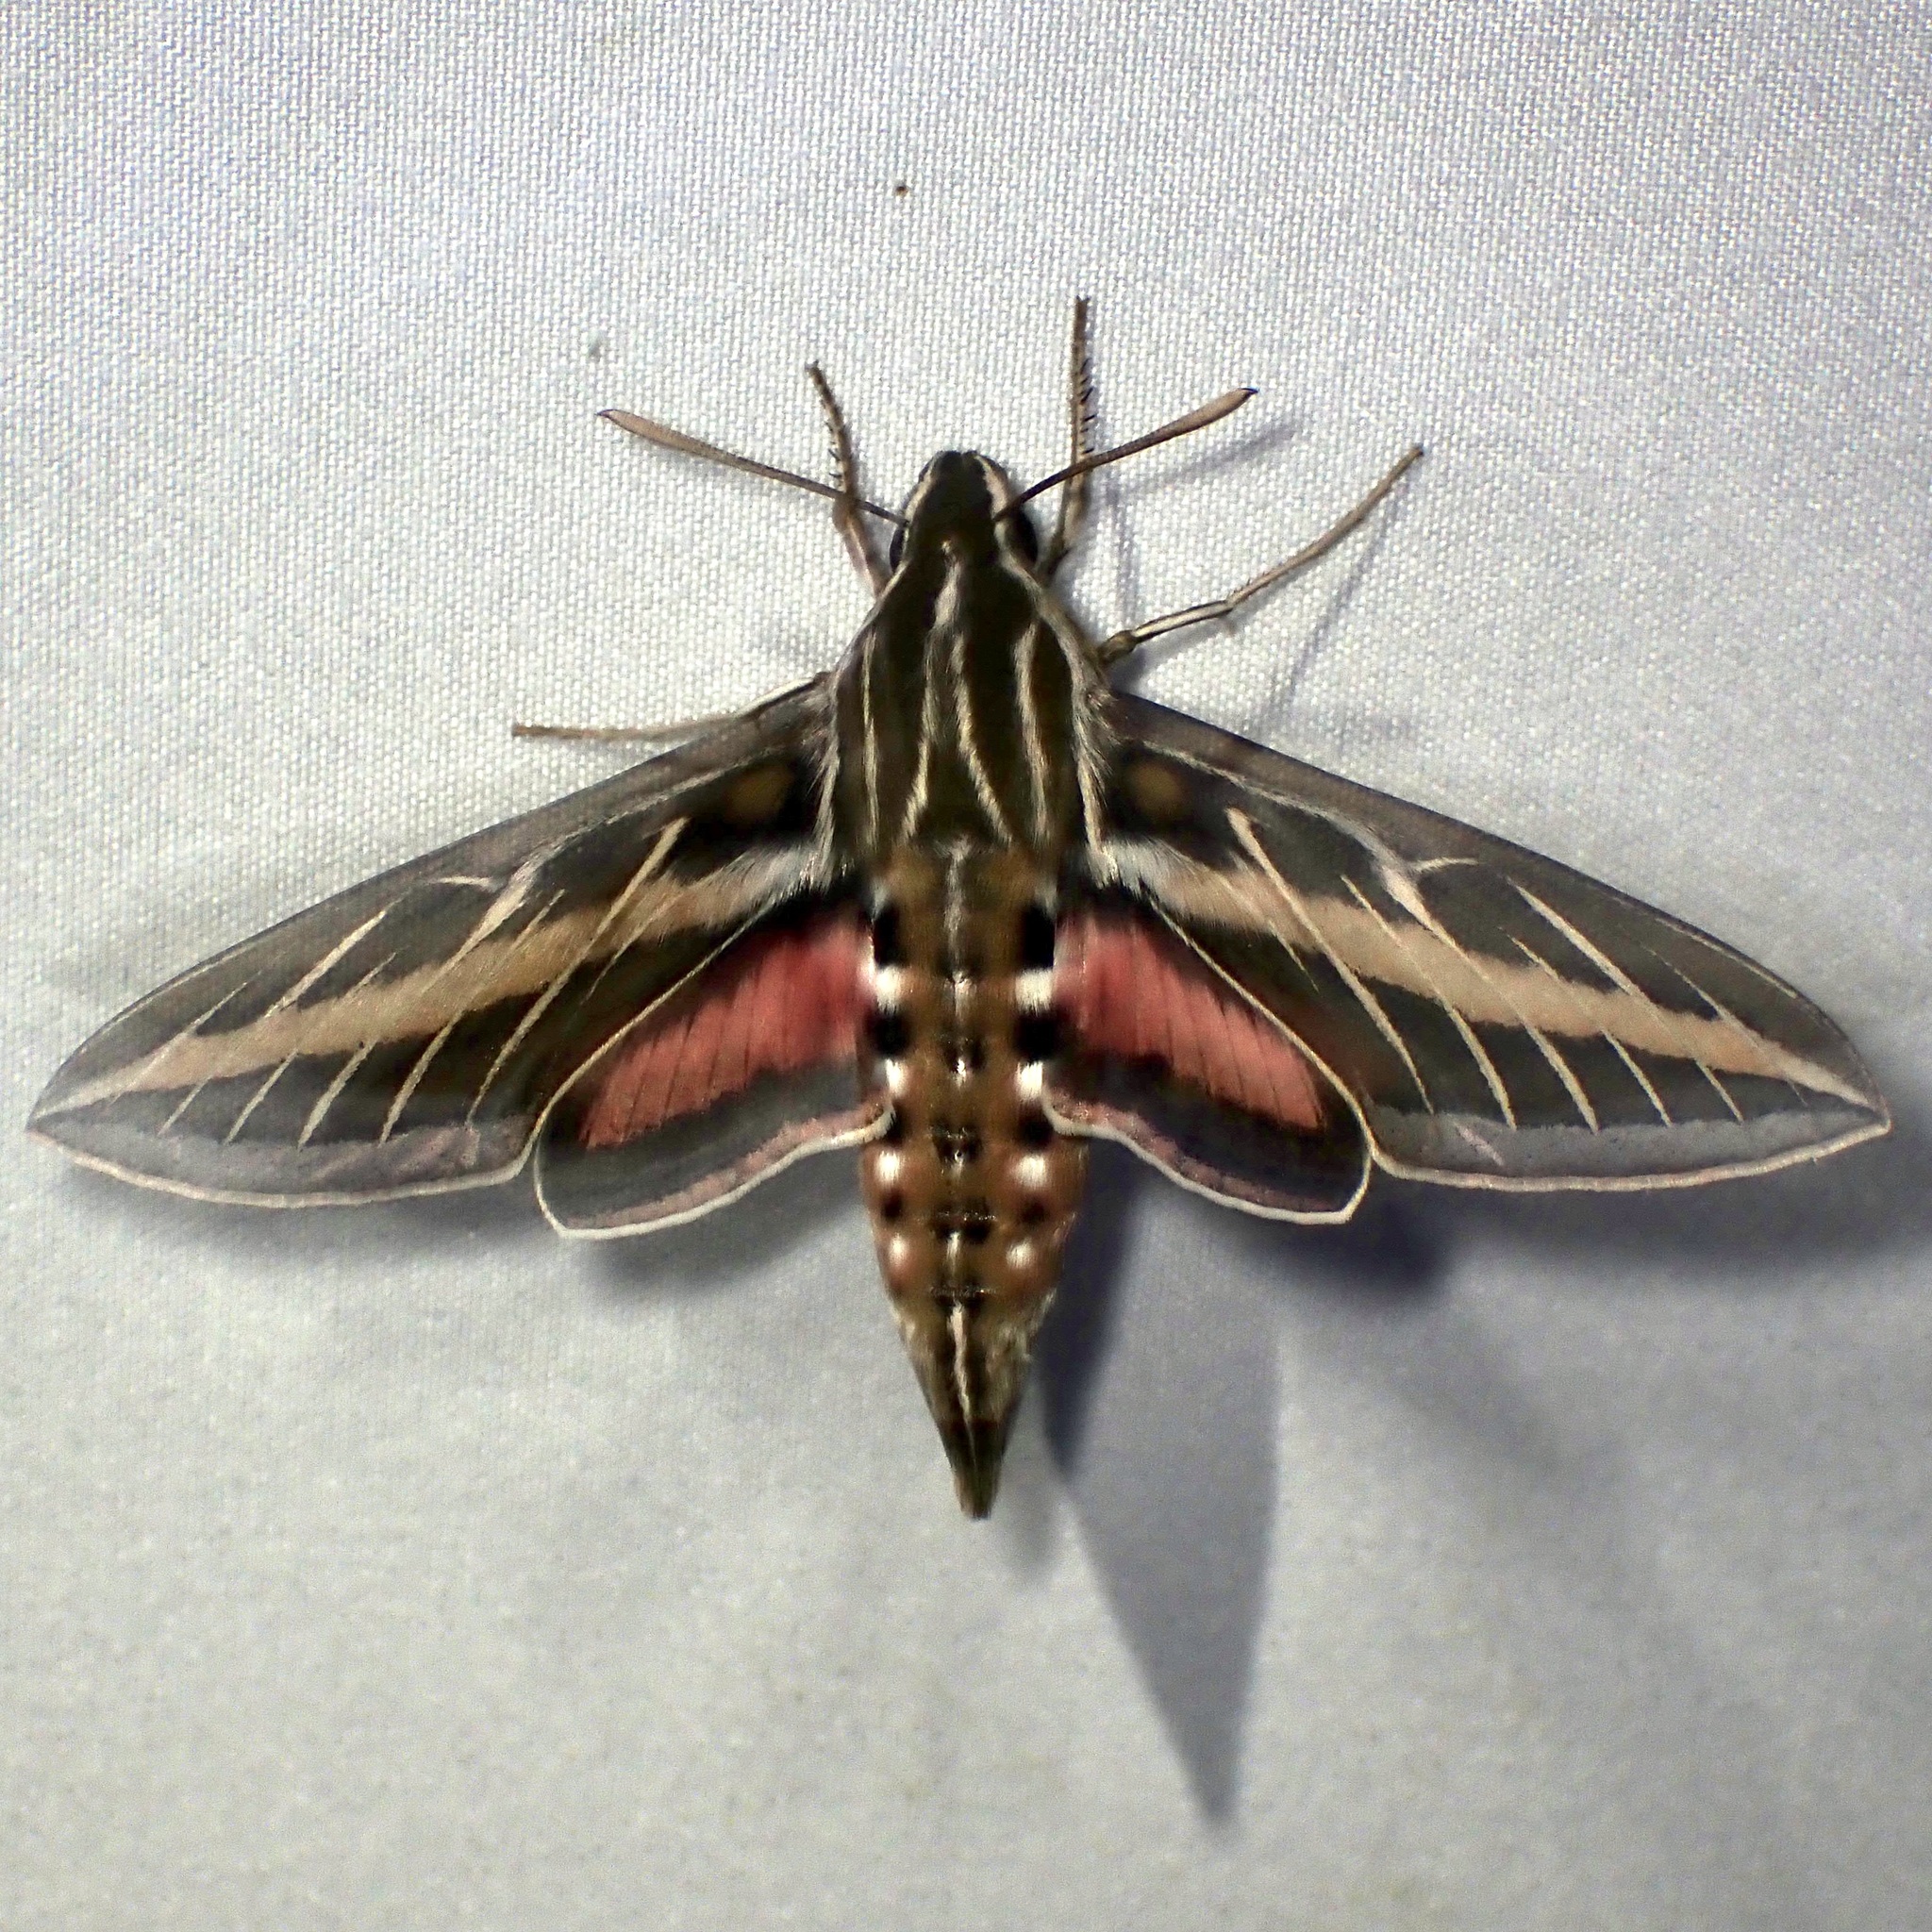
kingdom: Animalia
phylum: Arthropoda
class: Insecta
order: Lepidoptera
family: Sphingidae
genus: Hyles
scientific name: Hyles lineata
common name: White-lined sphinx
